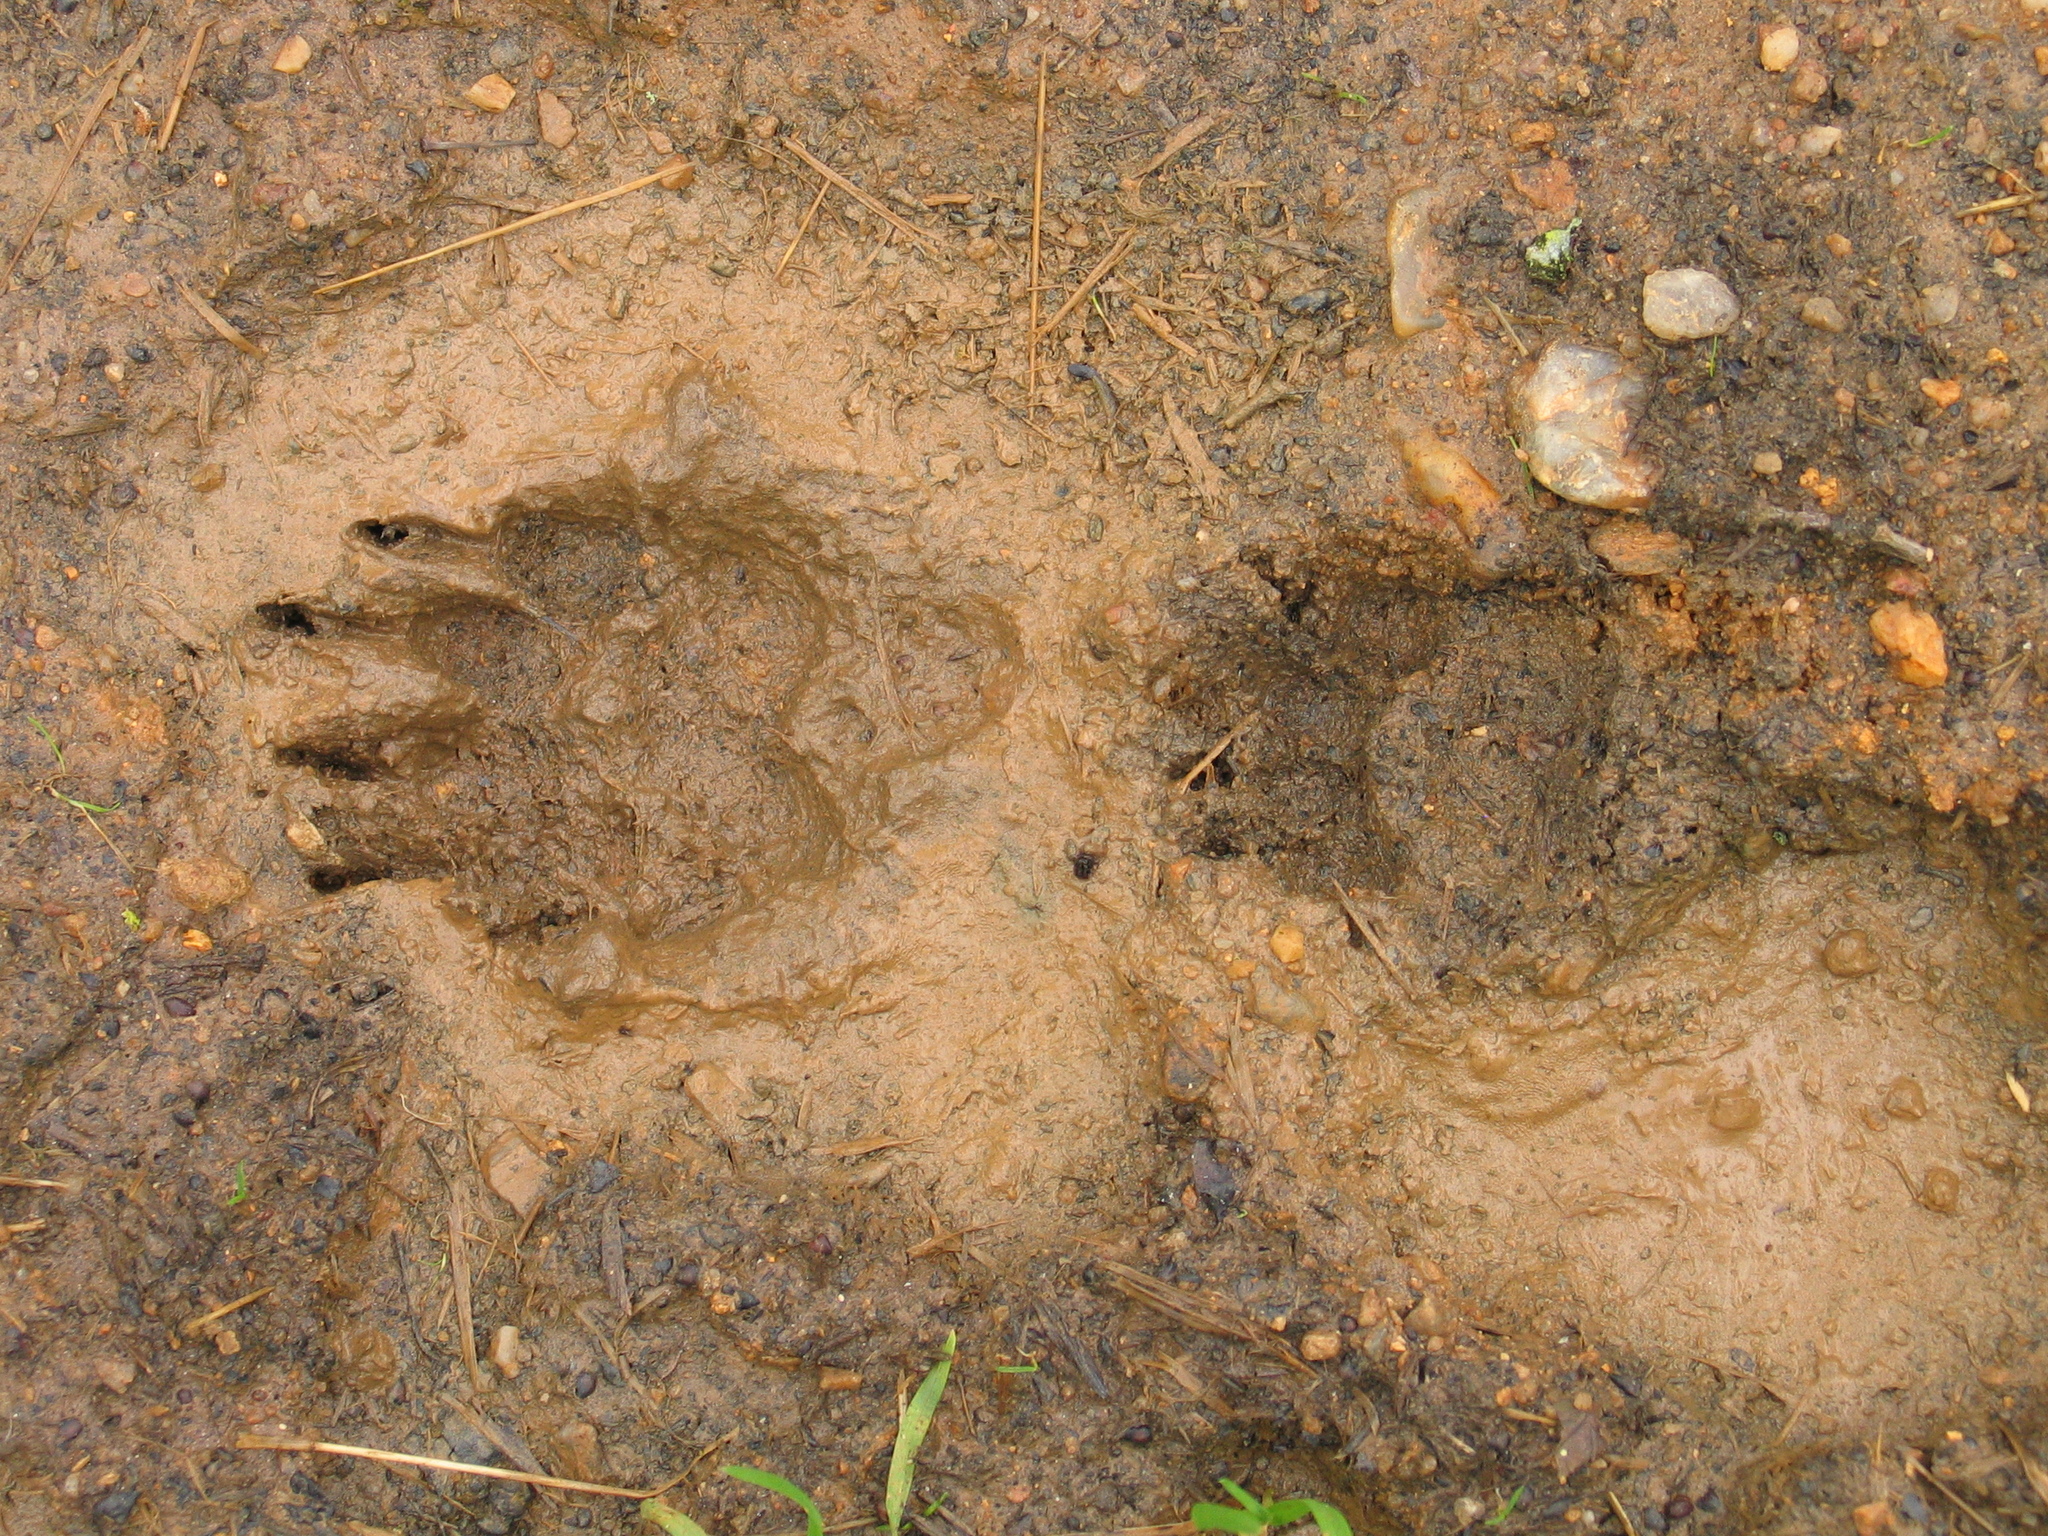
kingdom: Animalia
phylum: Chordata
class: Mammalia
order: Carnivora
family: Mustelidae
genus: Meles
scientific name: Meles meles
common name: Eurasian badger
